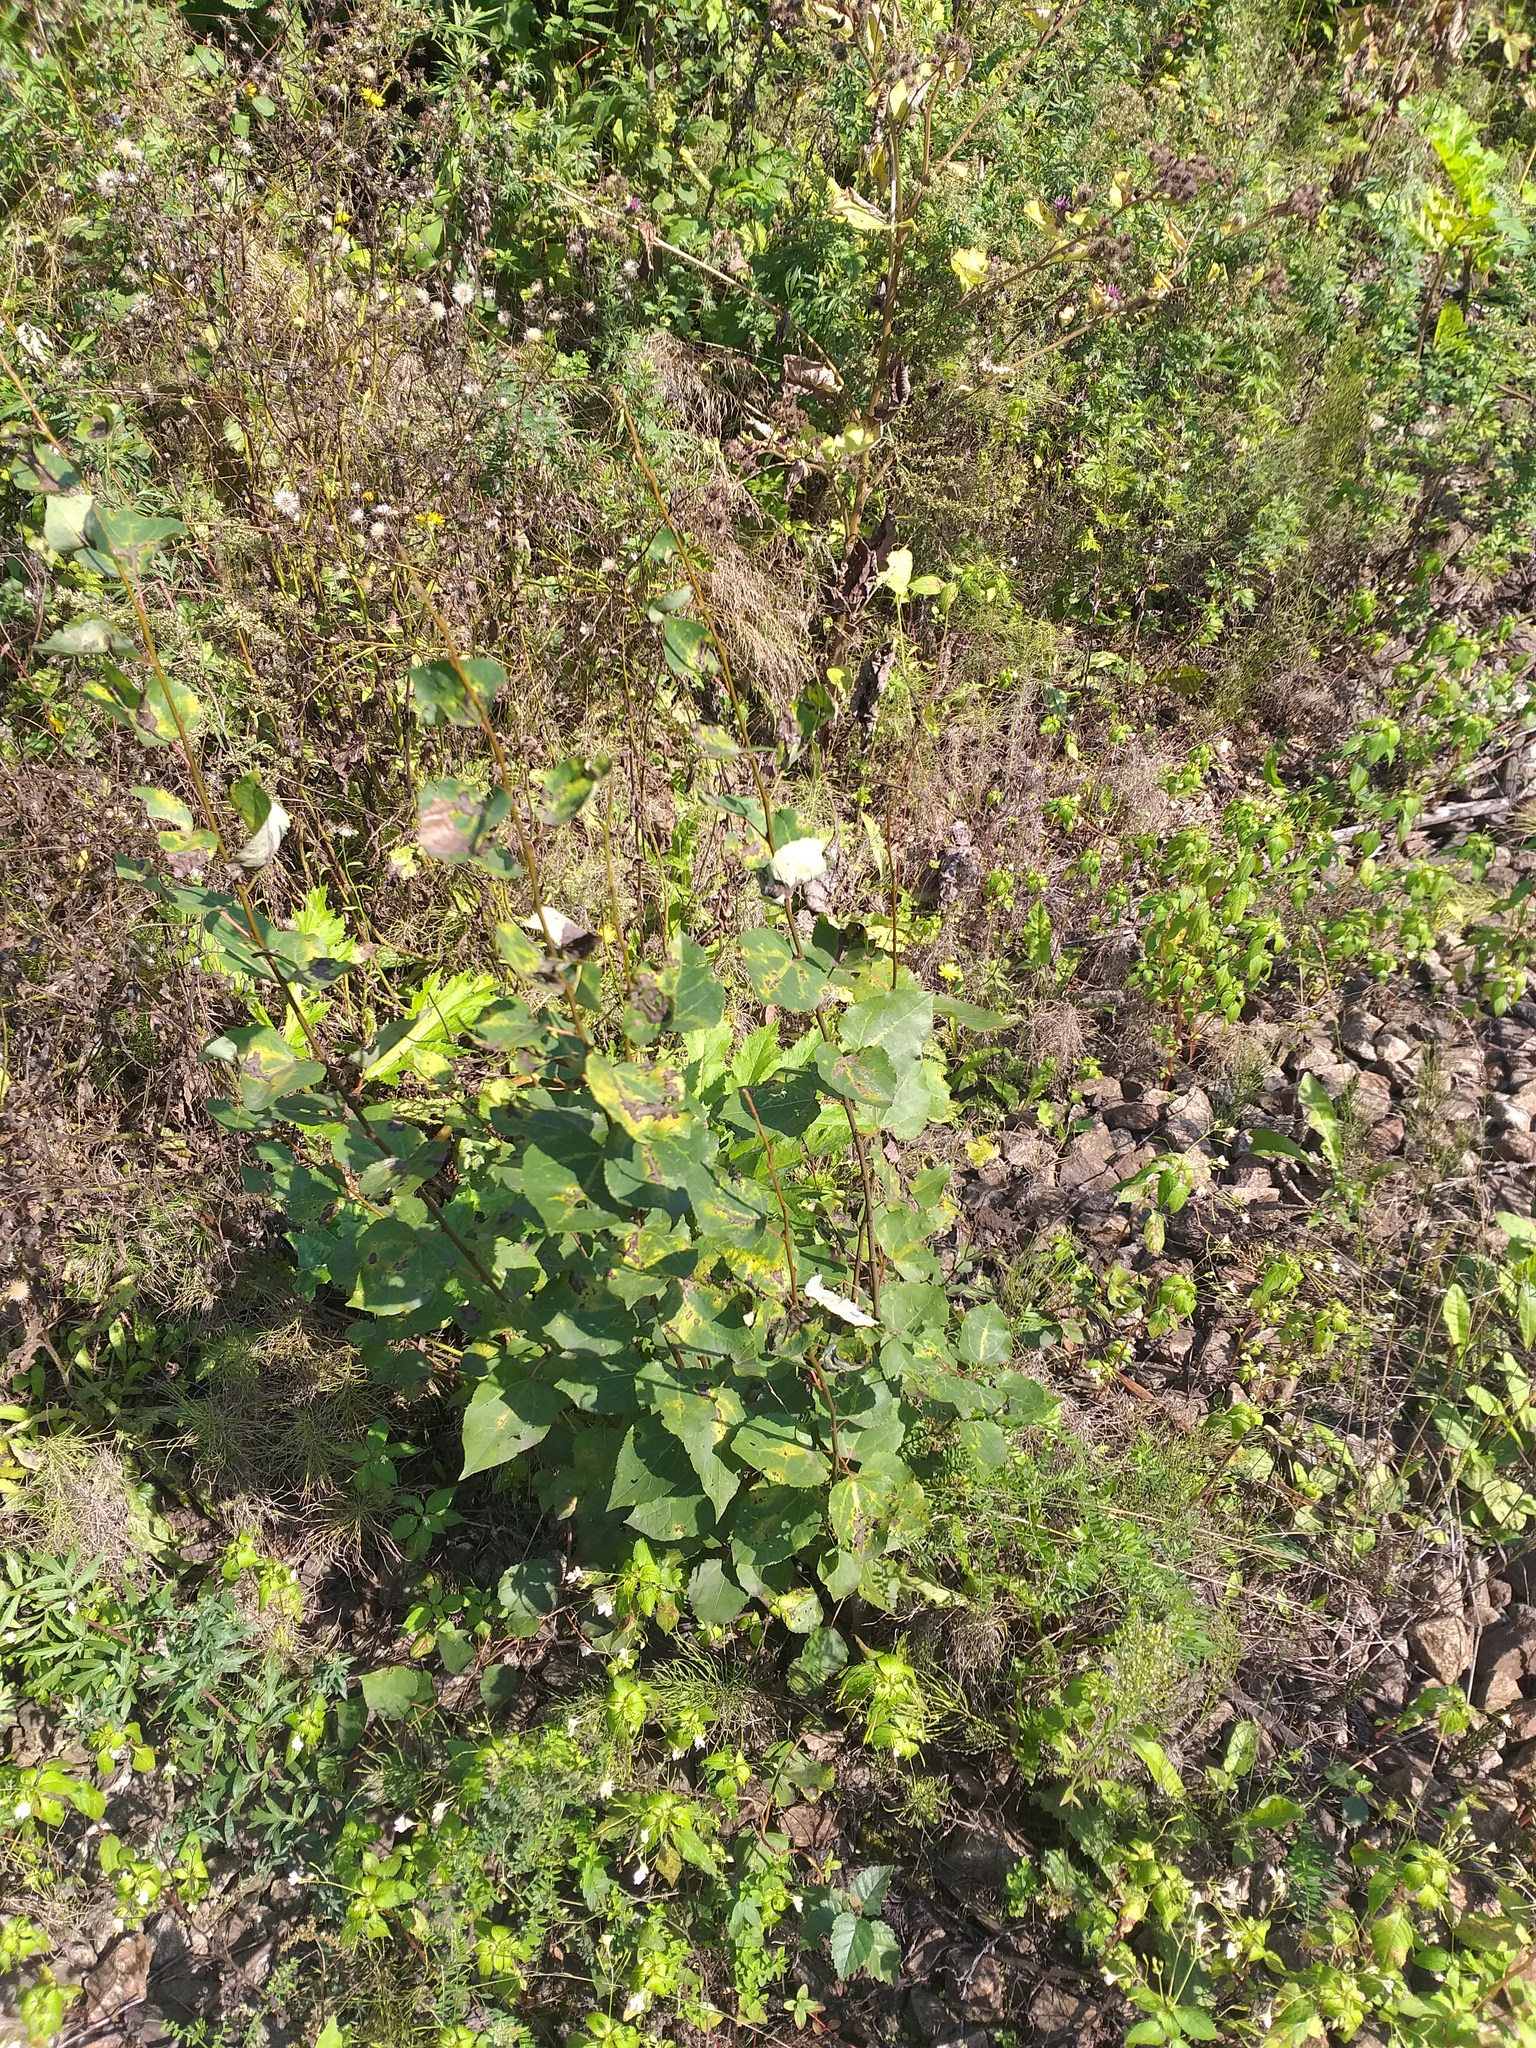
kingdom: Plantae
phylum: Tracheophyta
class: Magnoliopsida
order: Malpighiales
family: Salicaceae
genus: Populus
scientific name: Populus tremula
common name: European aspen
